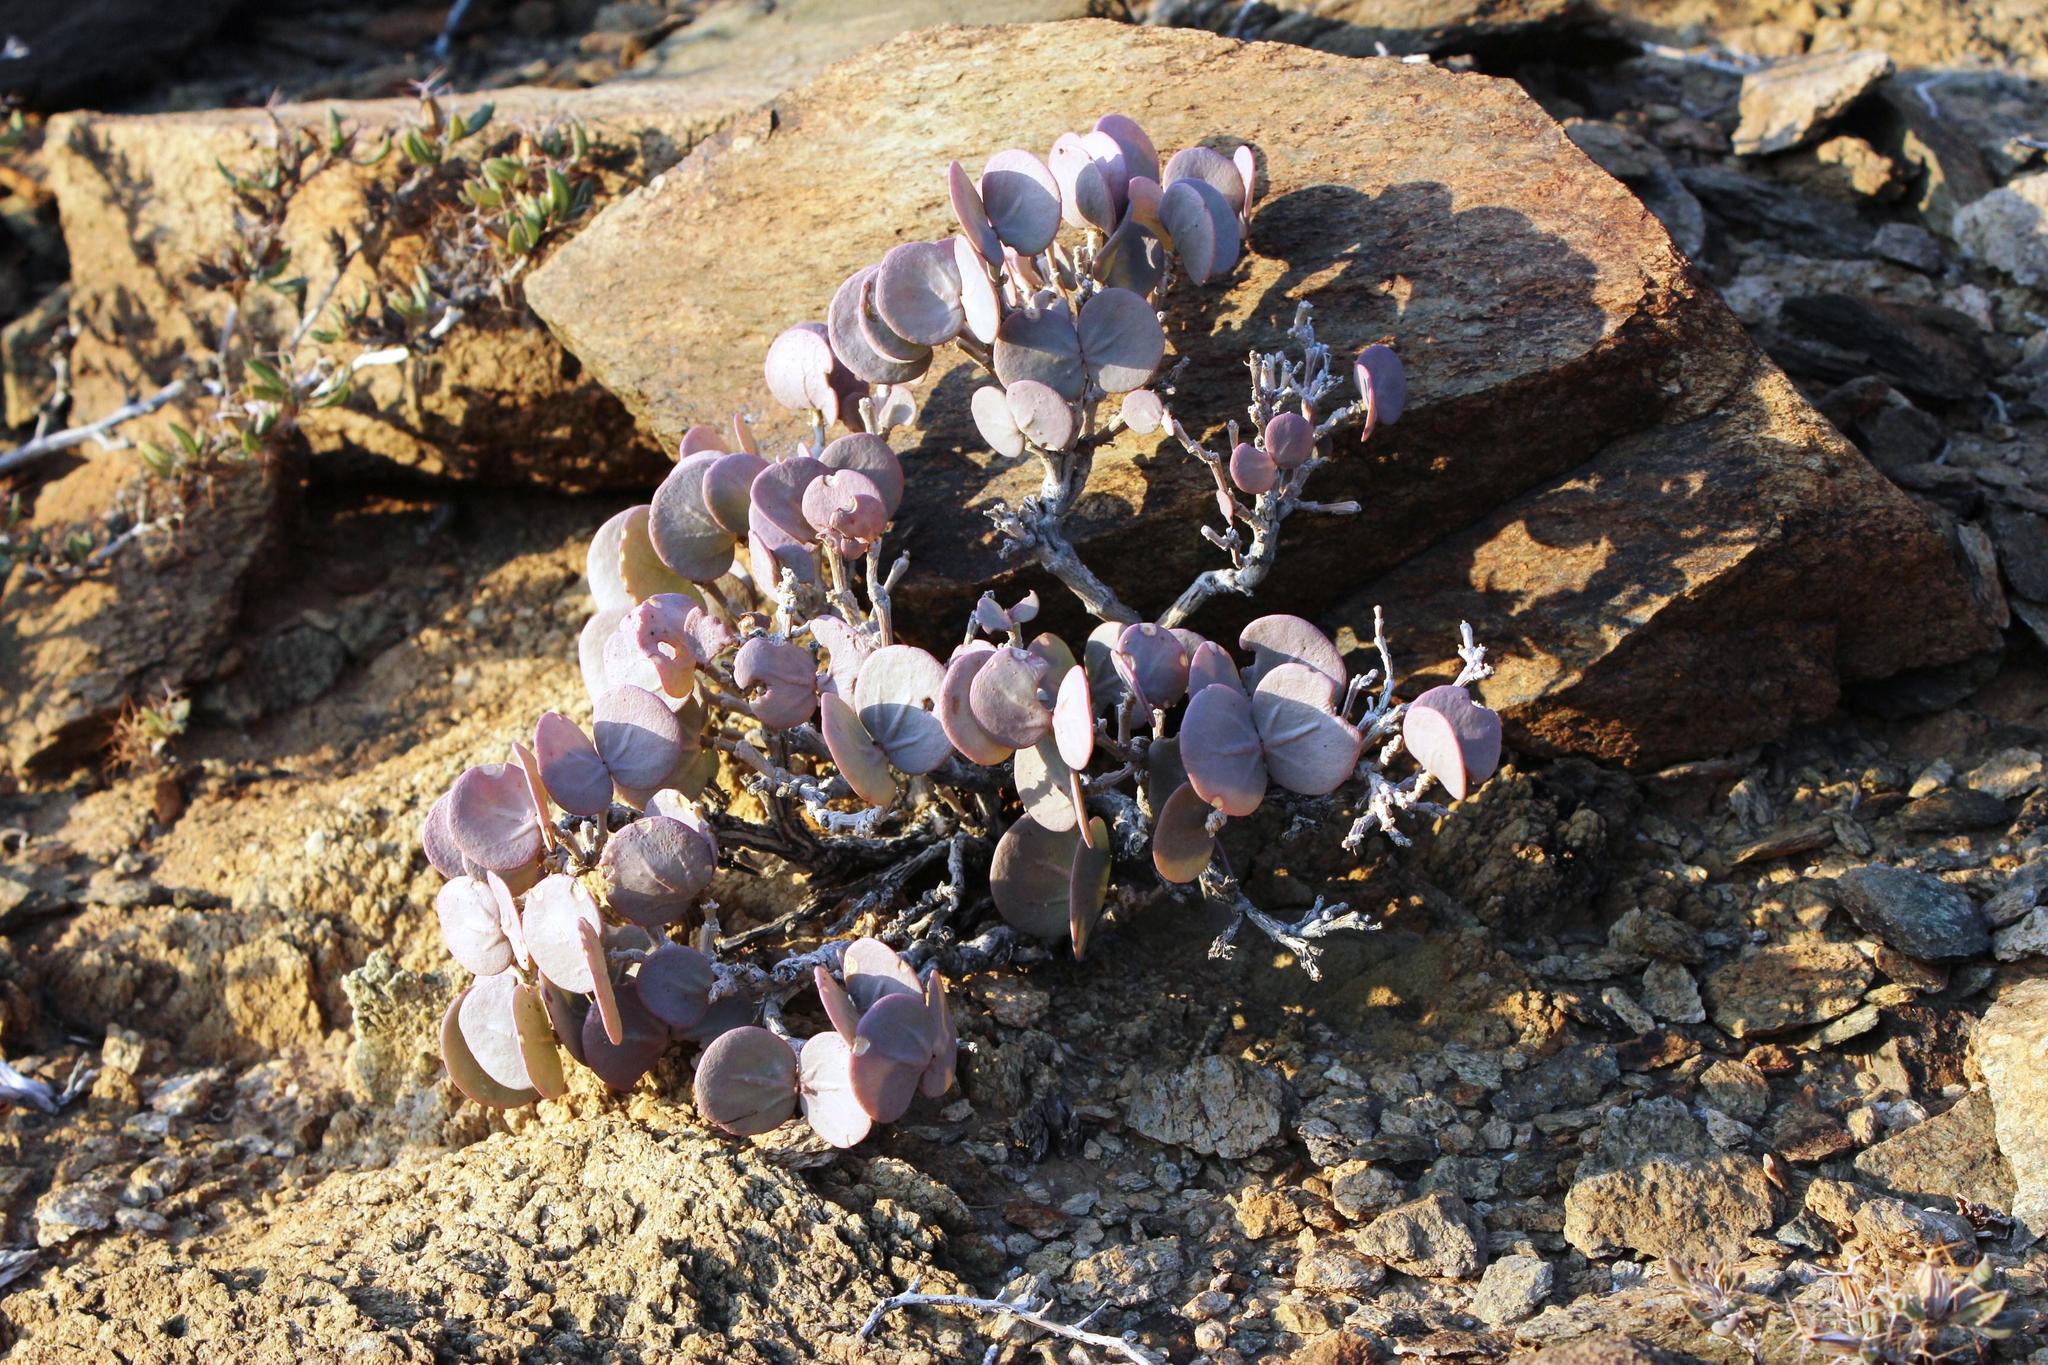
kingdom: Plantae
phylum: Tracheophyta
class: Magnoliopsida
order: Zygophyllales
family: Zygophyllaceae
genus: Roepera
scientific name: Roepera cordifolia
